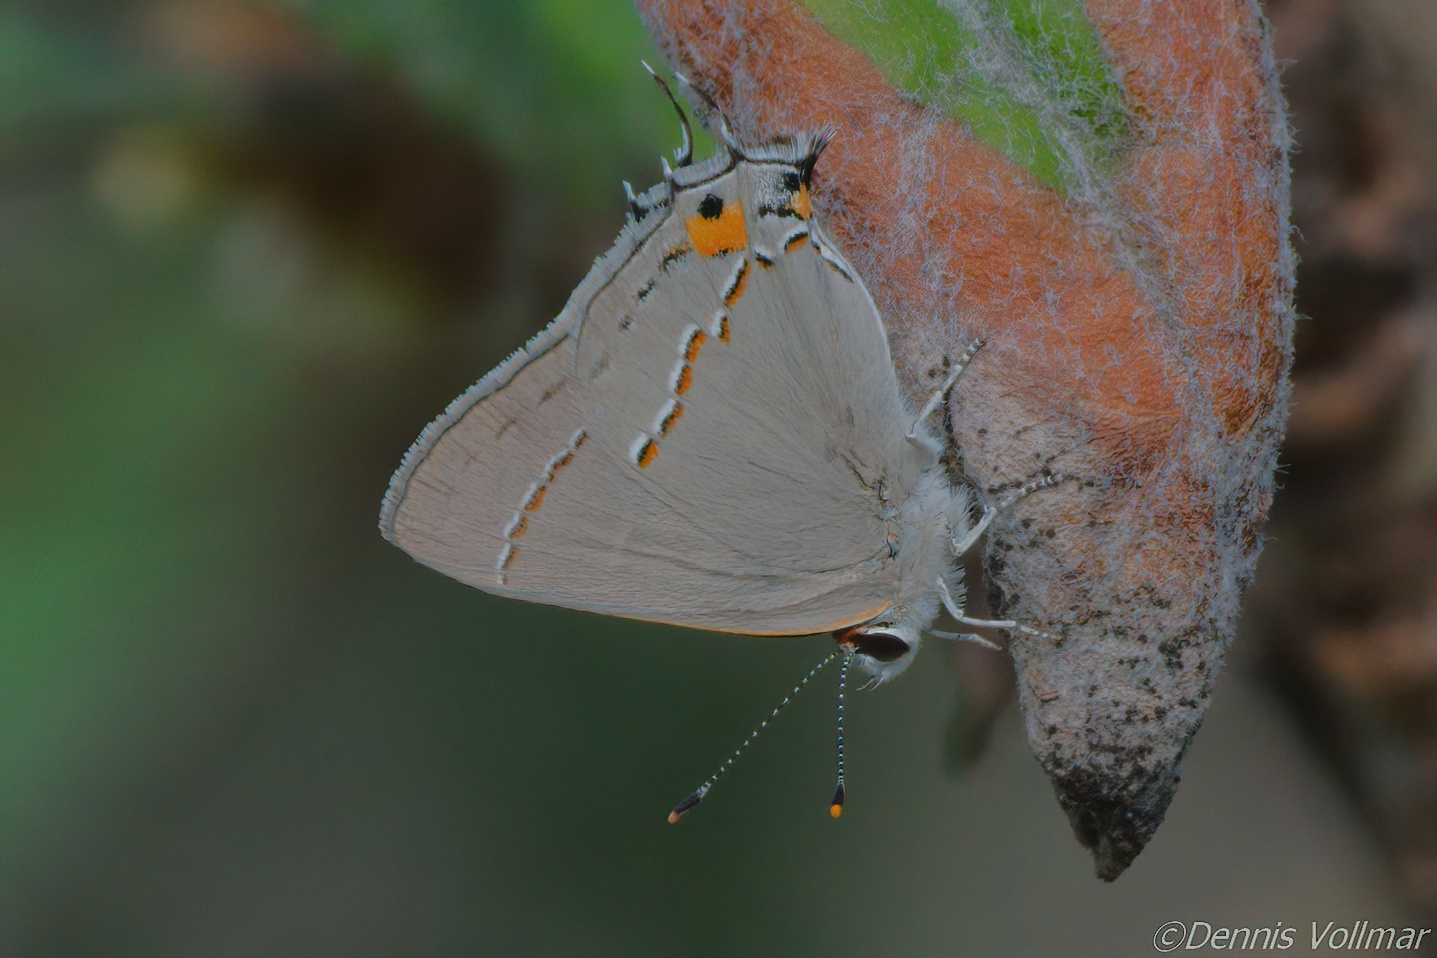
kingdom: Animalia
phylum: Arthropoda
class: Insecta
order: Lepidoptera
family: Lycaenidae
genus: Strymon
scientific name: Strymon melinus
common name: Gray hairstreak
